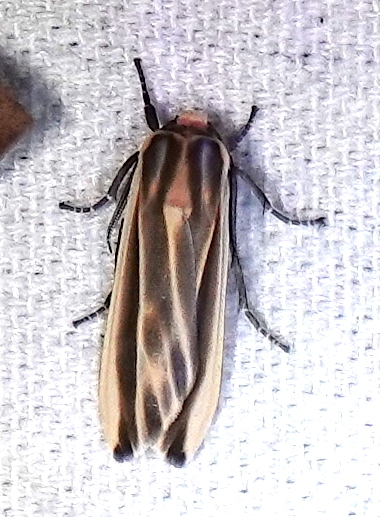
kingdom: Animalia
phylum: Arthropoda
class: Insecta
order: Lepidoptera
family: Erebidae
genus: Aemilia
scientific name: Aemilia mincosa
